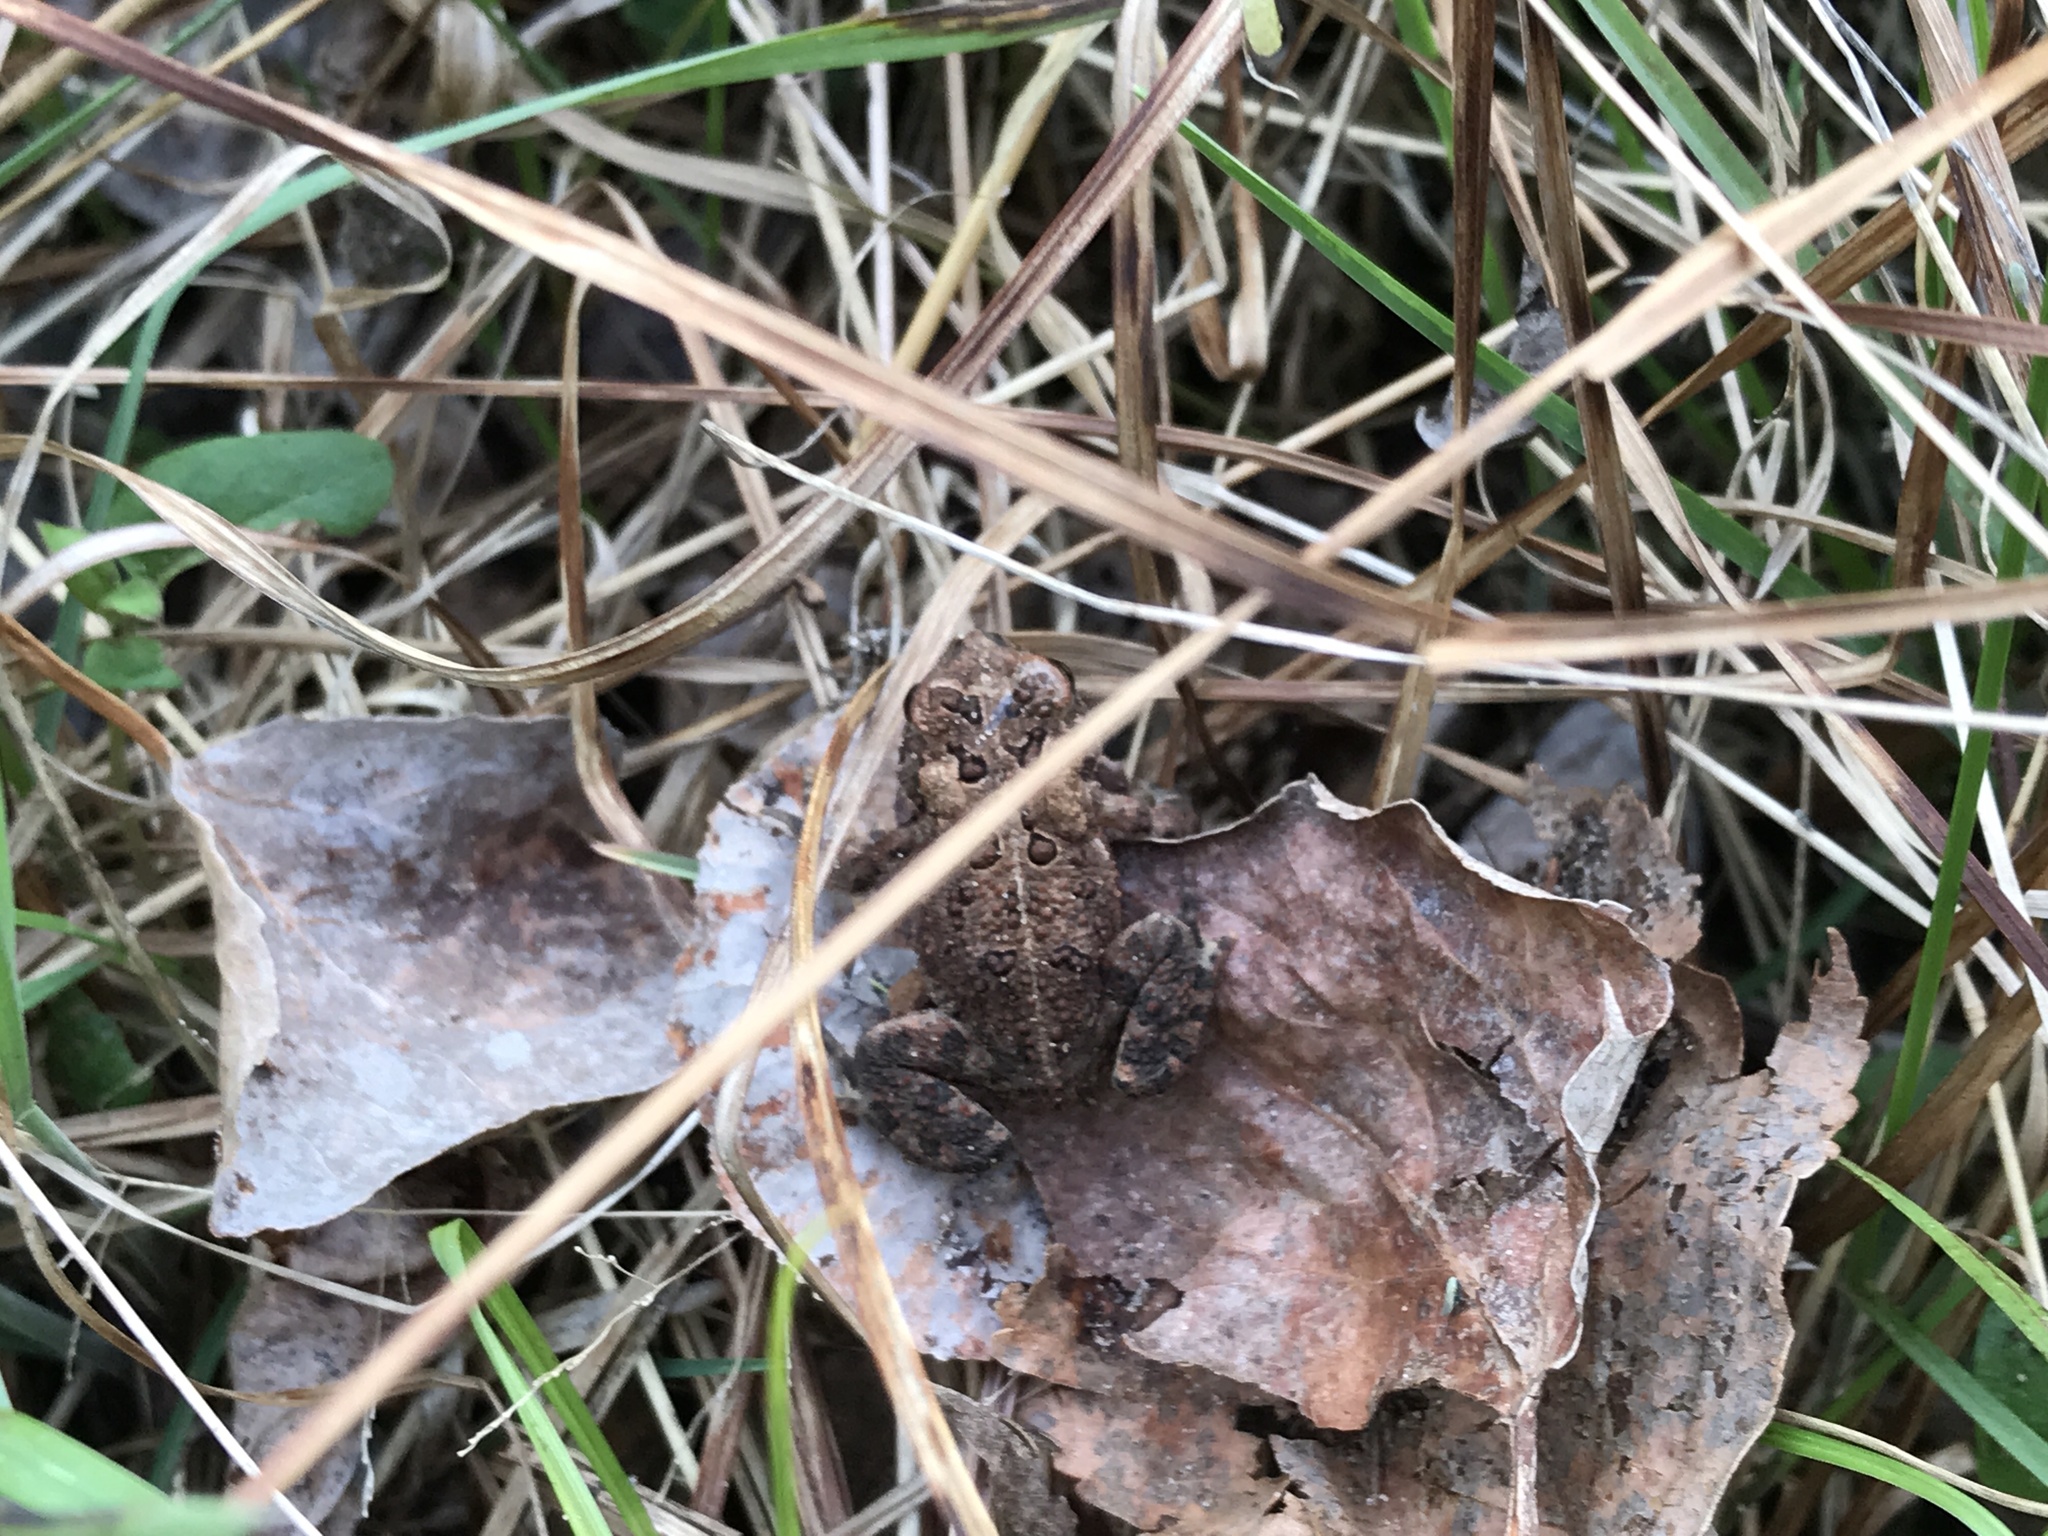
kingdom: Animalia
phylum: Chordata
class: Amphibia
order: Anura
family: Bufonidae
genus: Anaxyrus
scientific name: Anaxyrus americanus
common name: American toad
